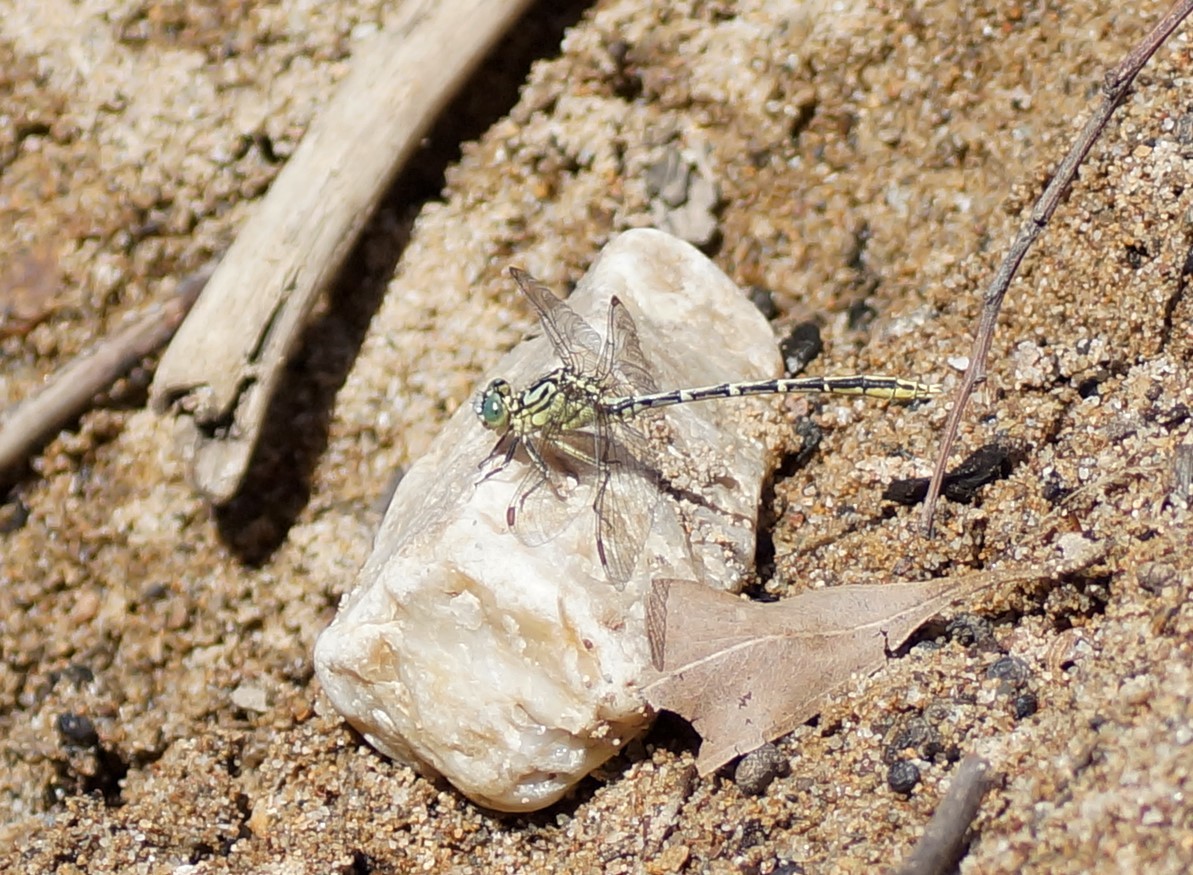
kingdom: Animalia
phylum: Arthropoda
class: Insecta
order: Odonata
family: Gomphidae
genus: Austrogomphus
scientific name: Austrogomphus guerini
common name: Yellow-striped hunter
